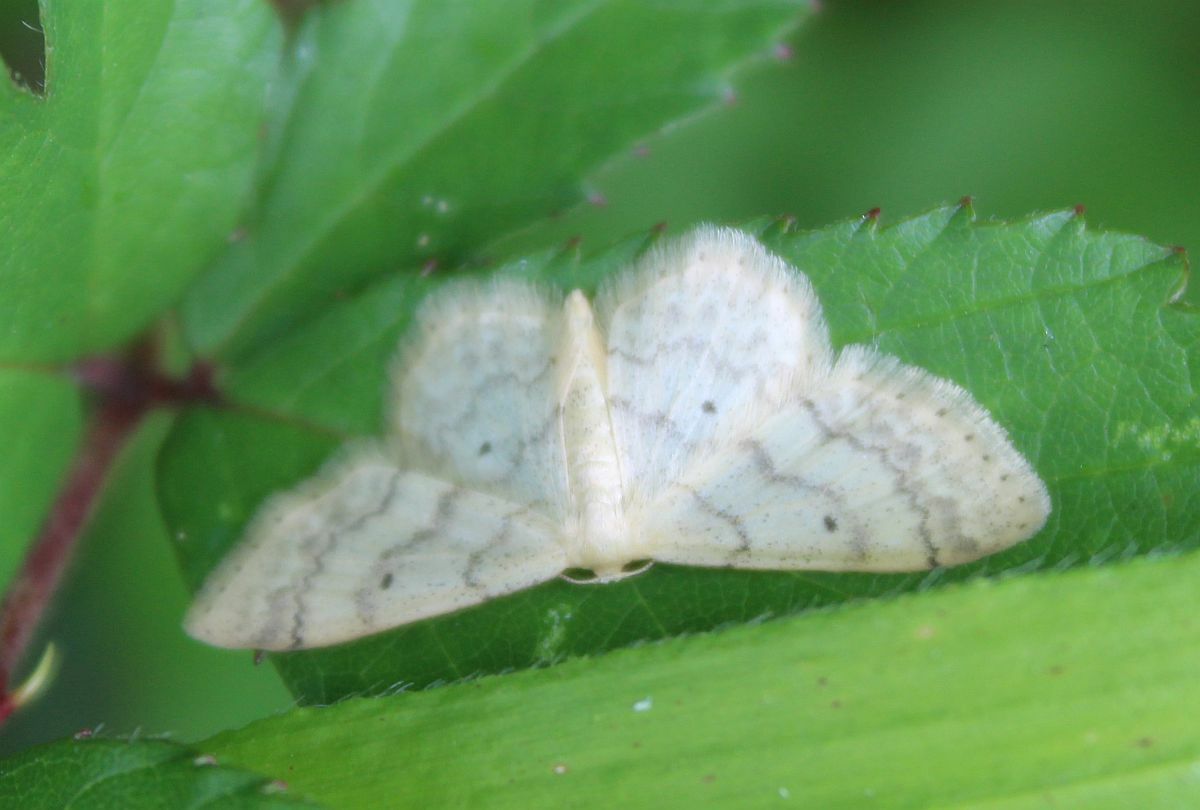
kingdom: Animalia
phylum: Arthropoda
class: Insecta
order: Lepidoptera
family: Geometridae
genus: Idaea
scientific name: Idaea biselata
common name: Small fan-footed wave
